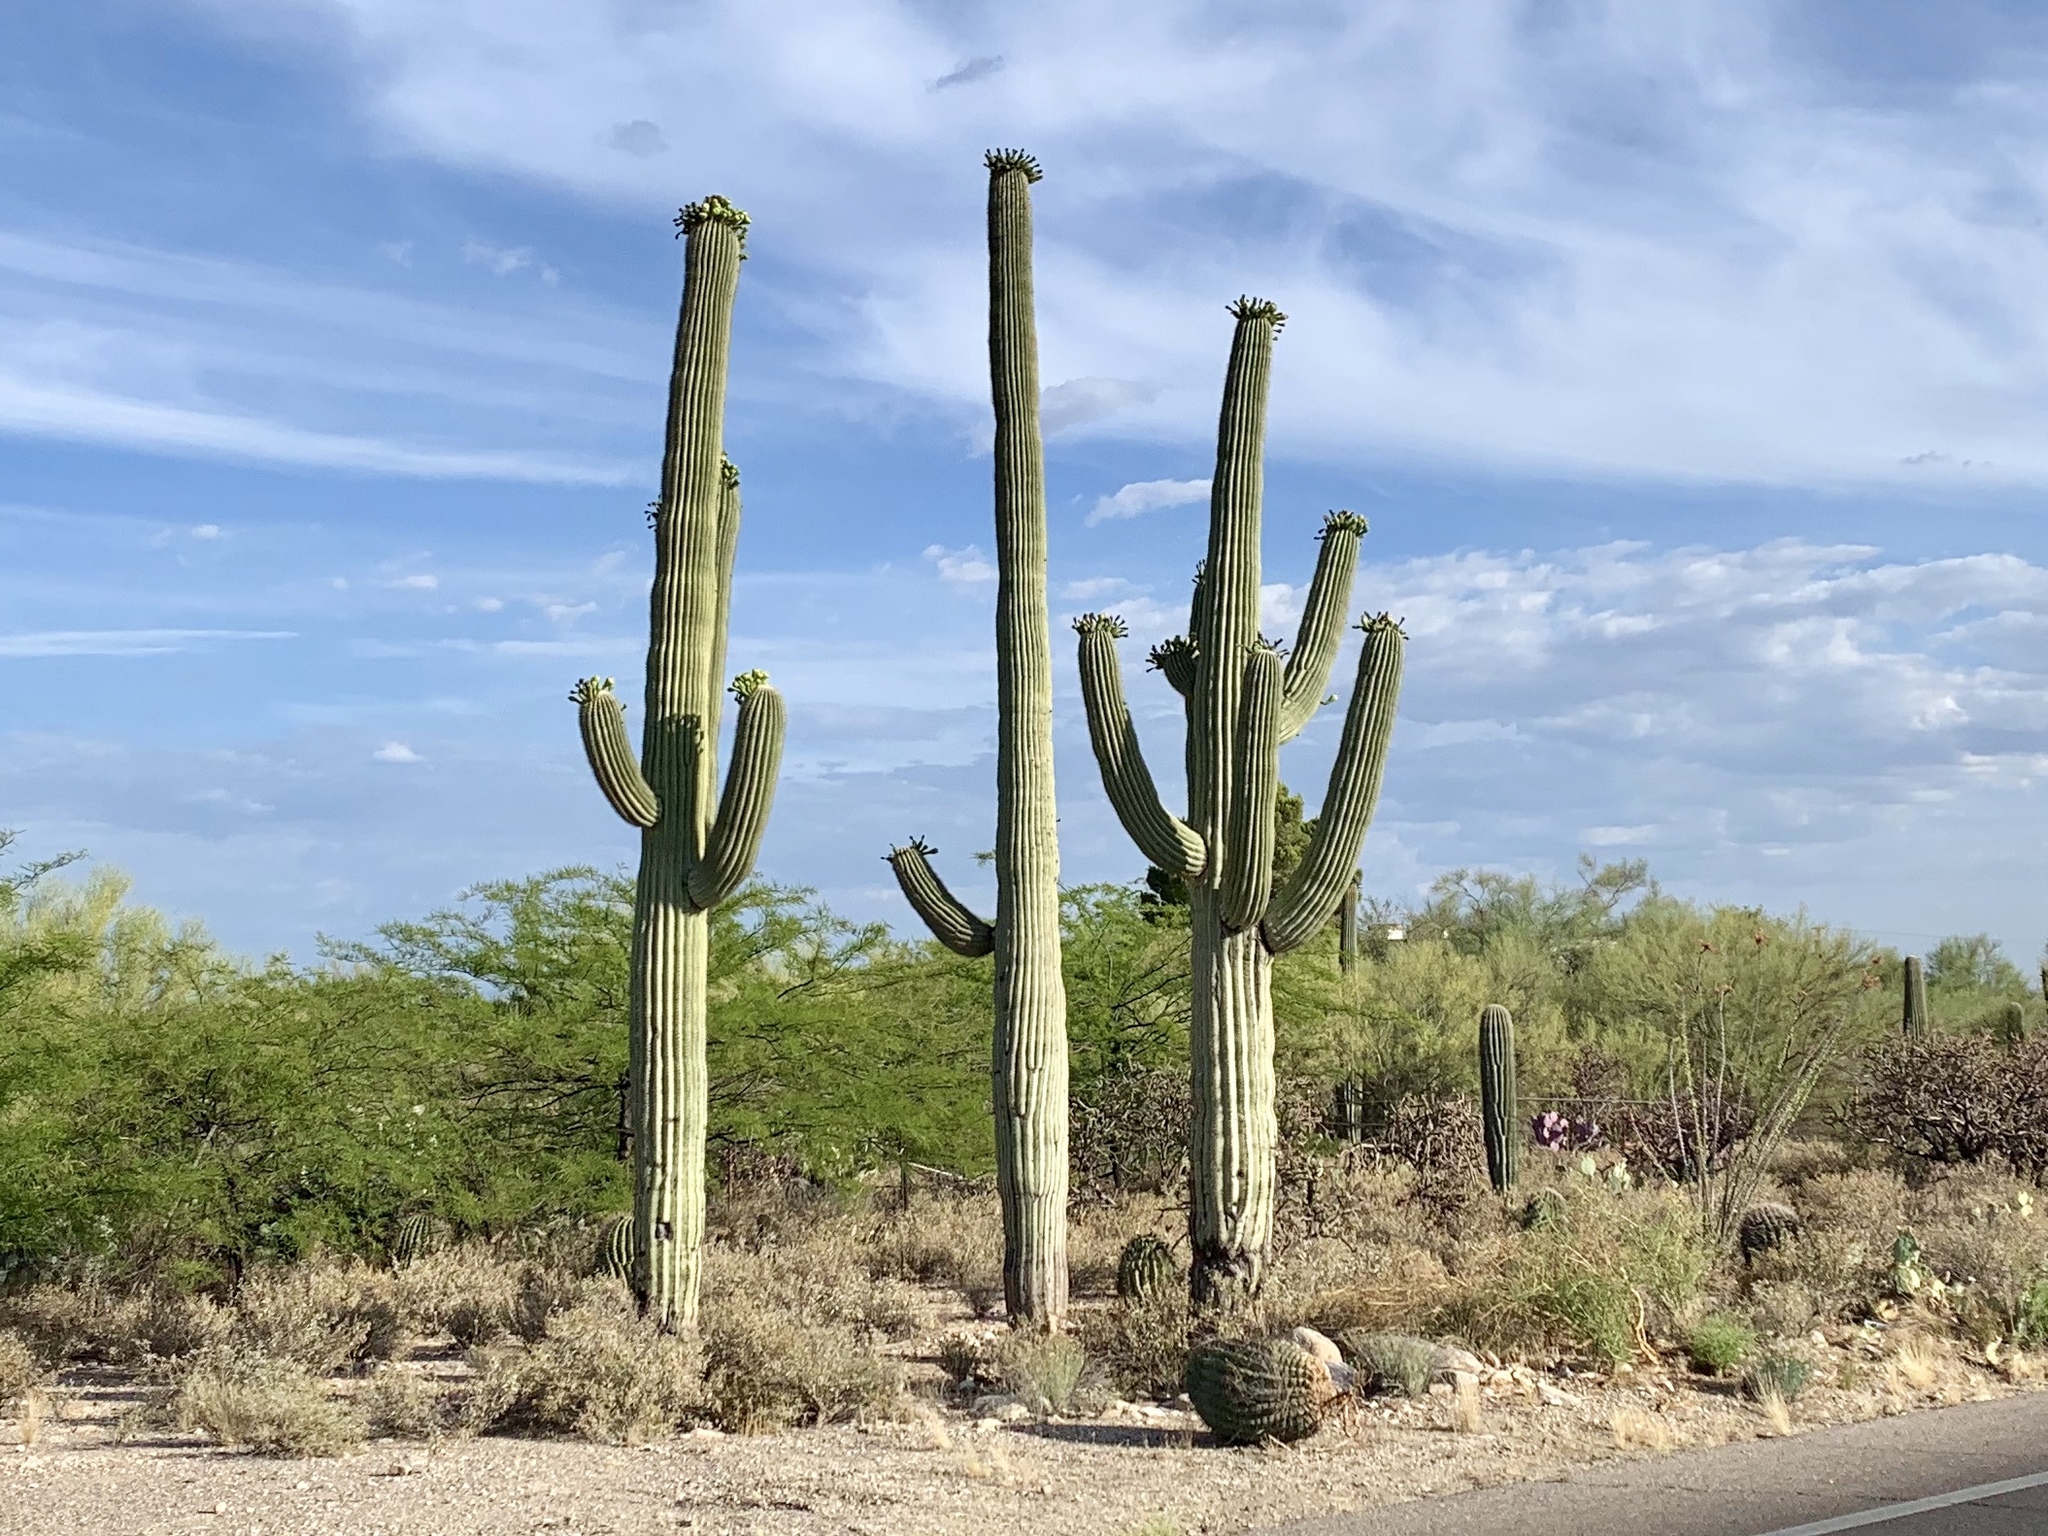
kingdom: Plantae
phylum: Tracheophyta
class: Magnoliopsida
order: Caryophyllales
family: Cactaceae
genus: Carnegiea
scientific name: Carnegiea gigantea
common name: Saguaro
